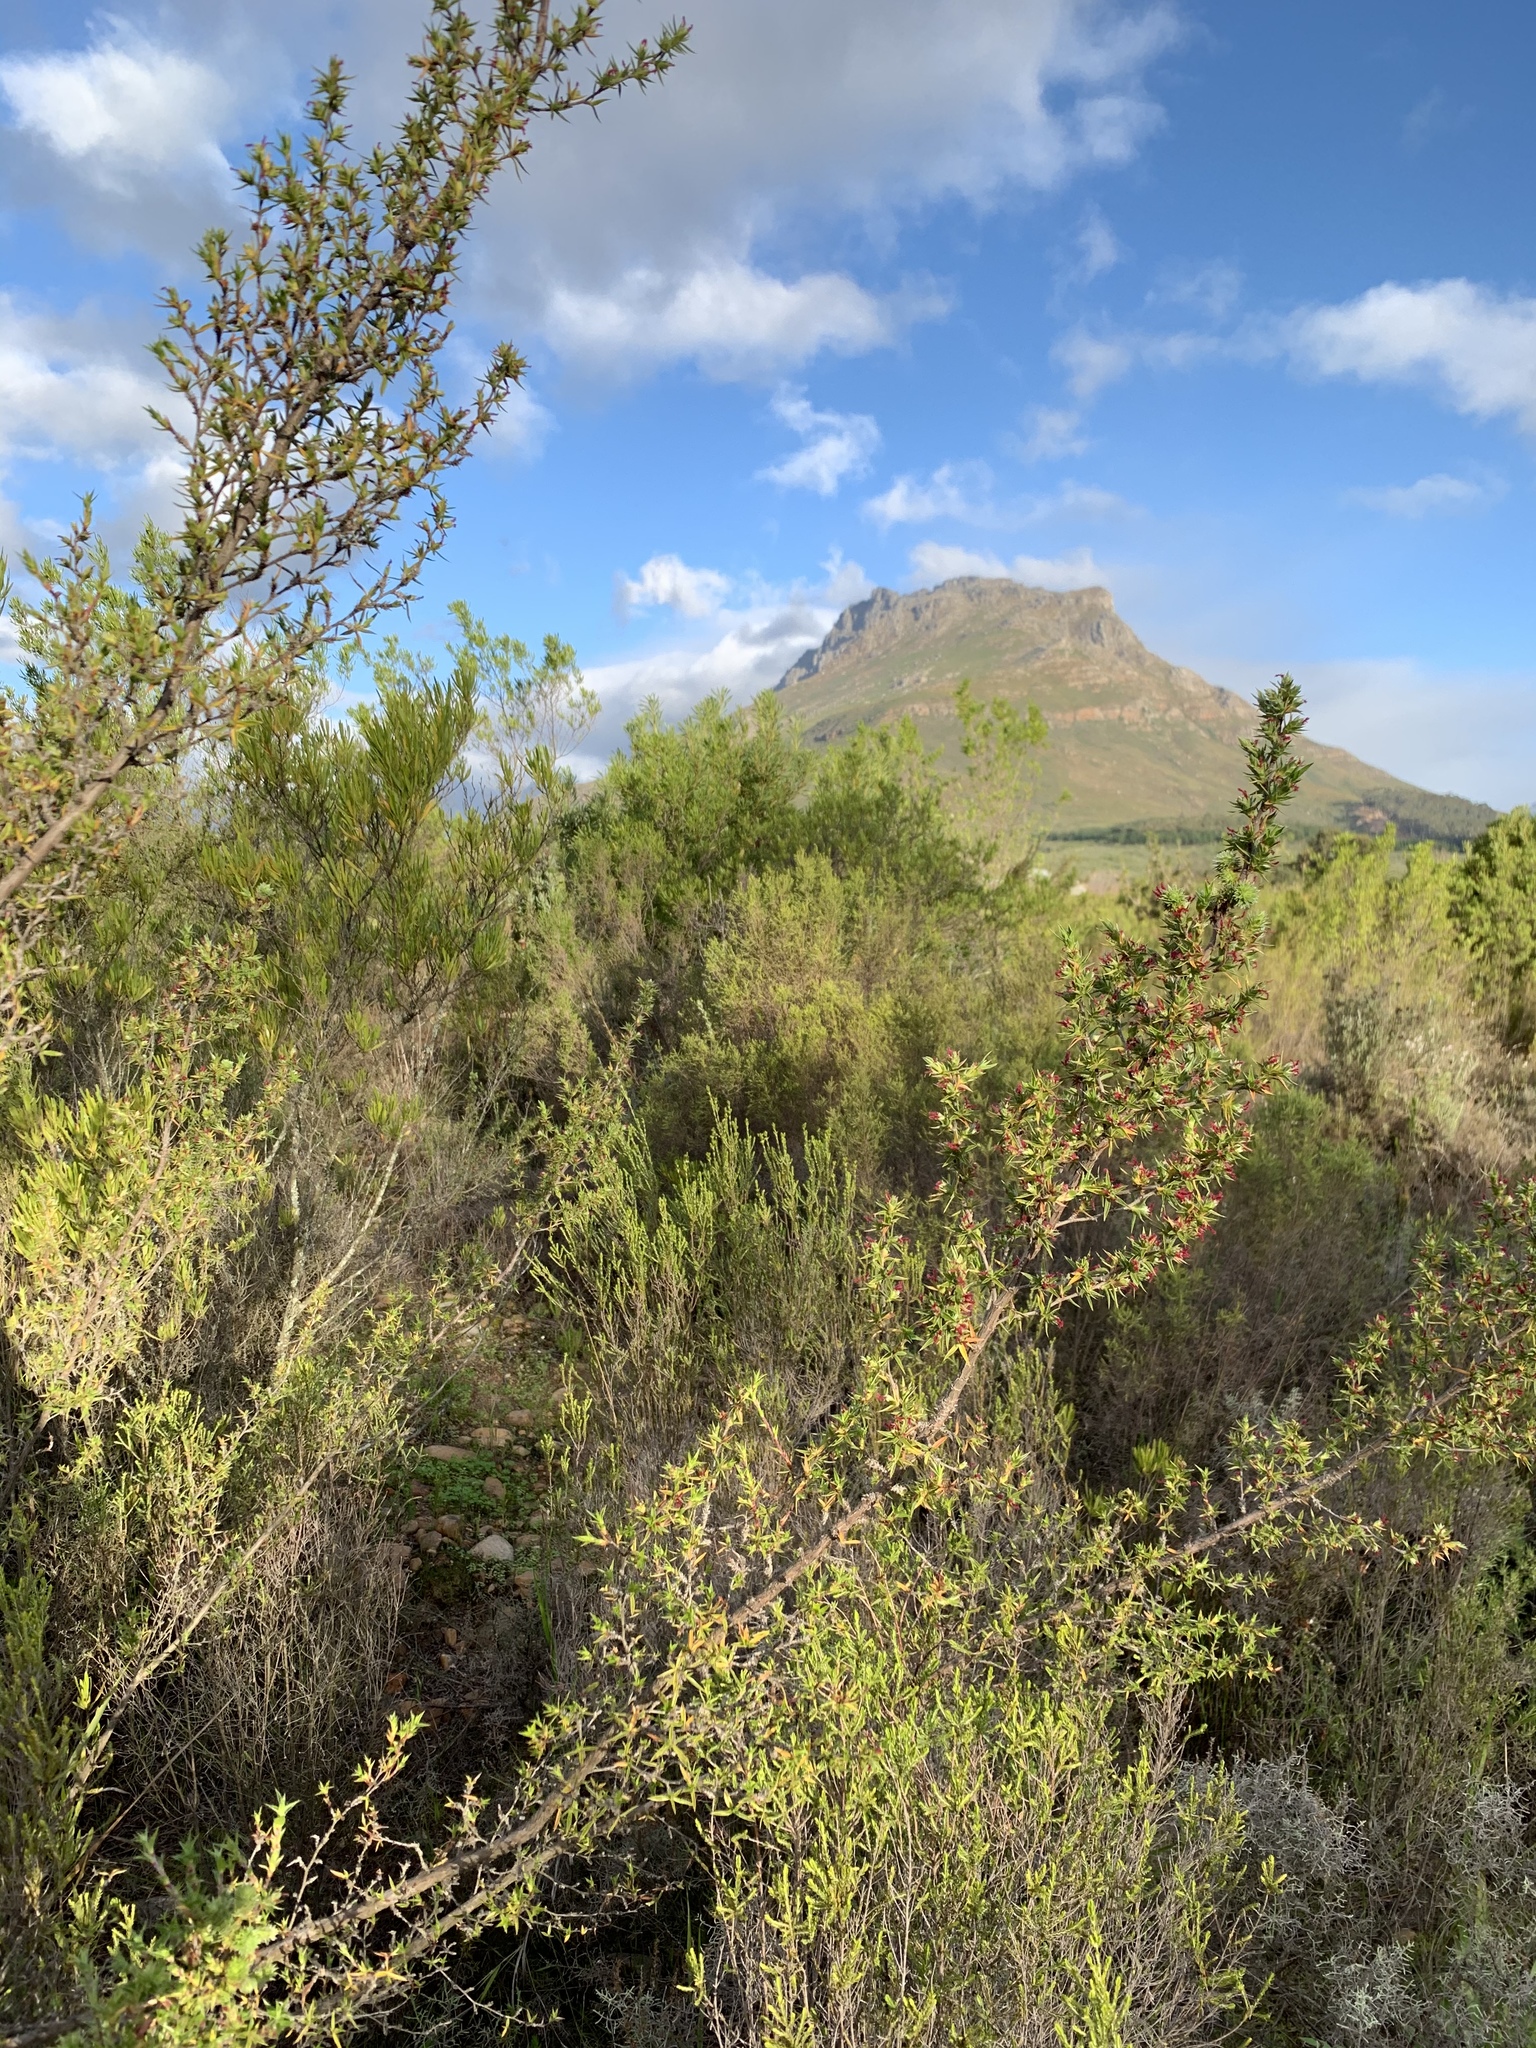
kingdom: Plantae
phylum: Tracheophyta
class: Magnoliopsida
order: Rosales
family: Rosaceae
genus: Cliffortia
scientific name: Cliffortia ruscifolia
